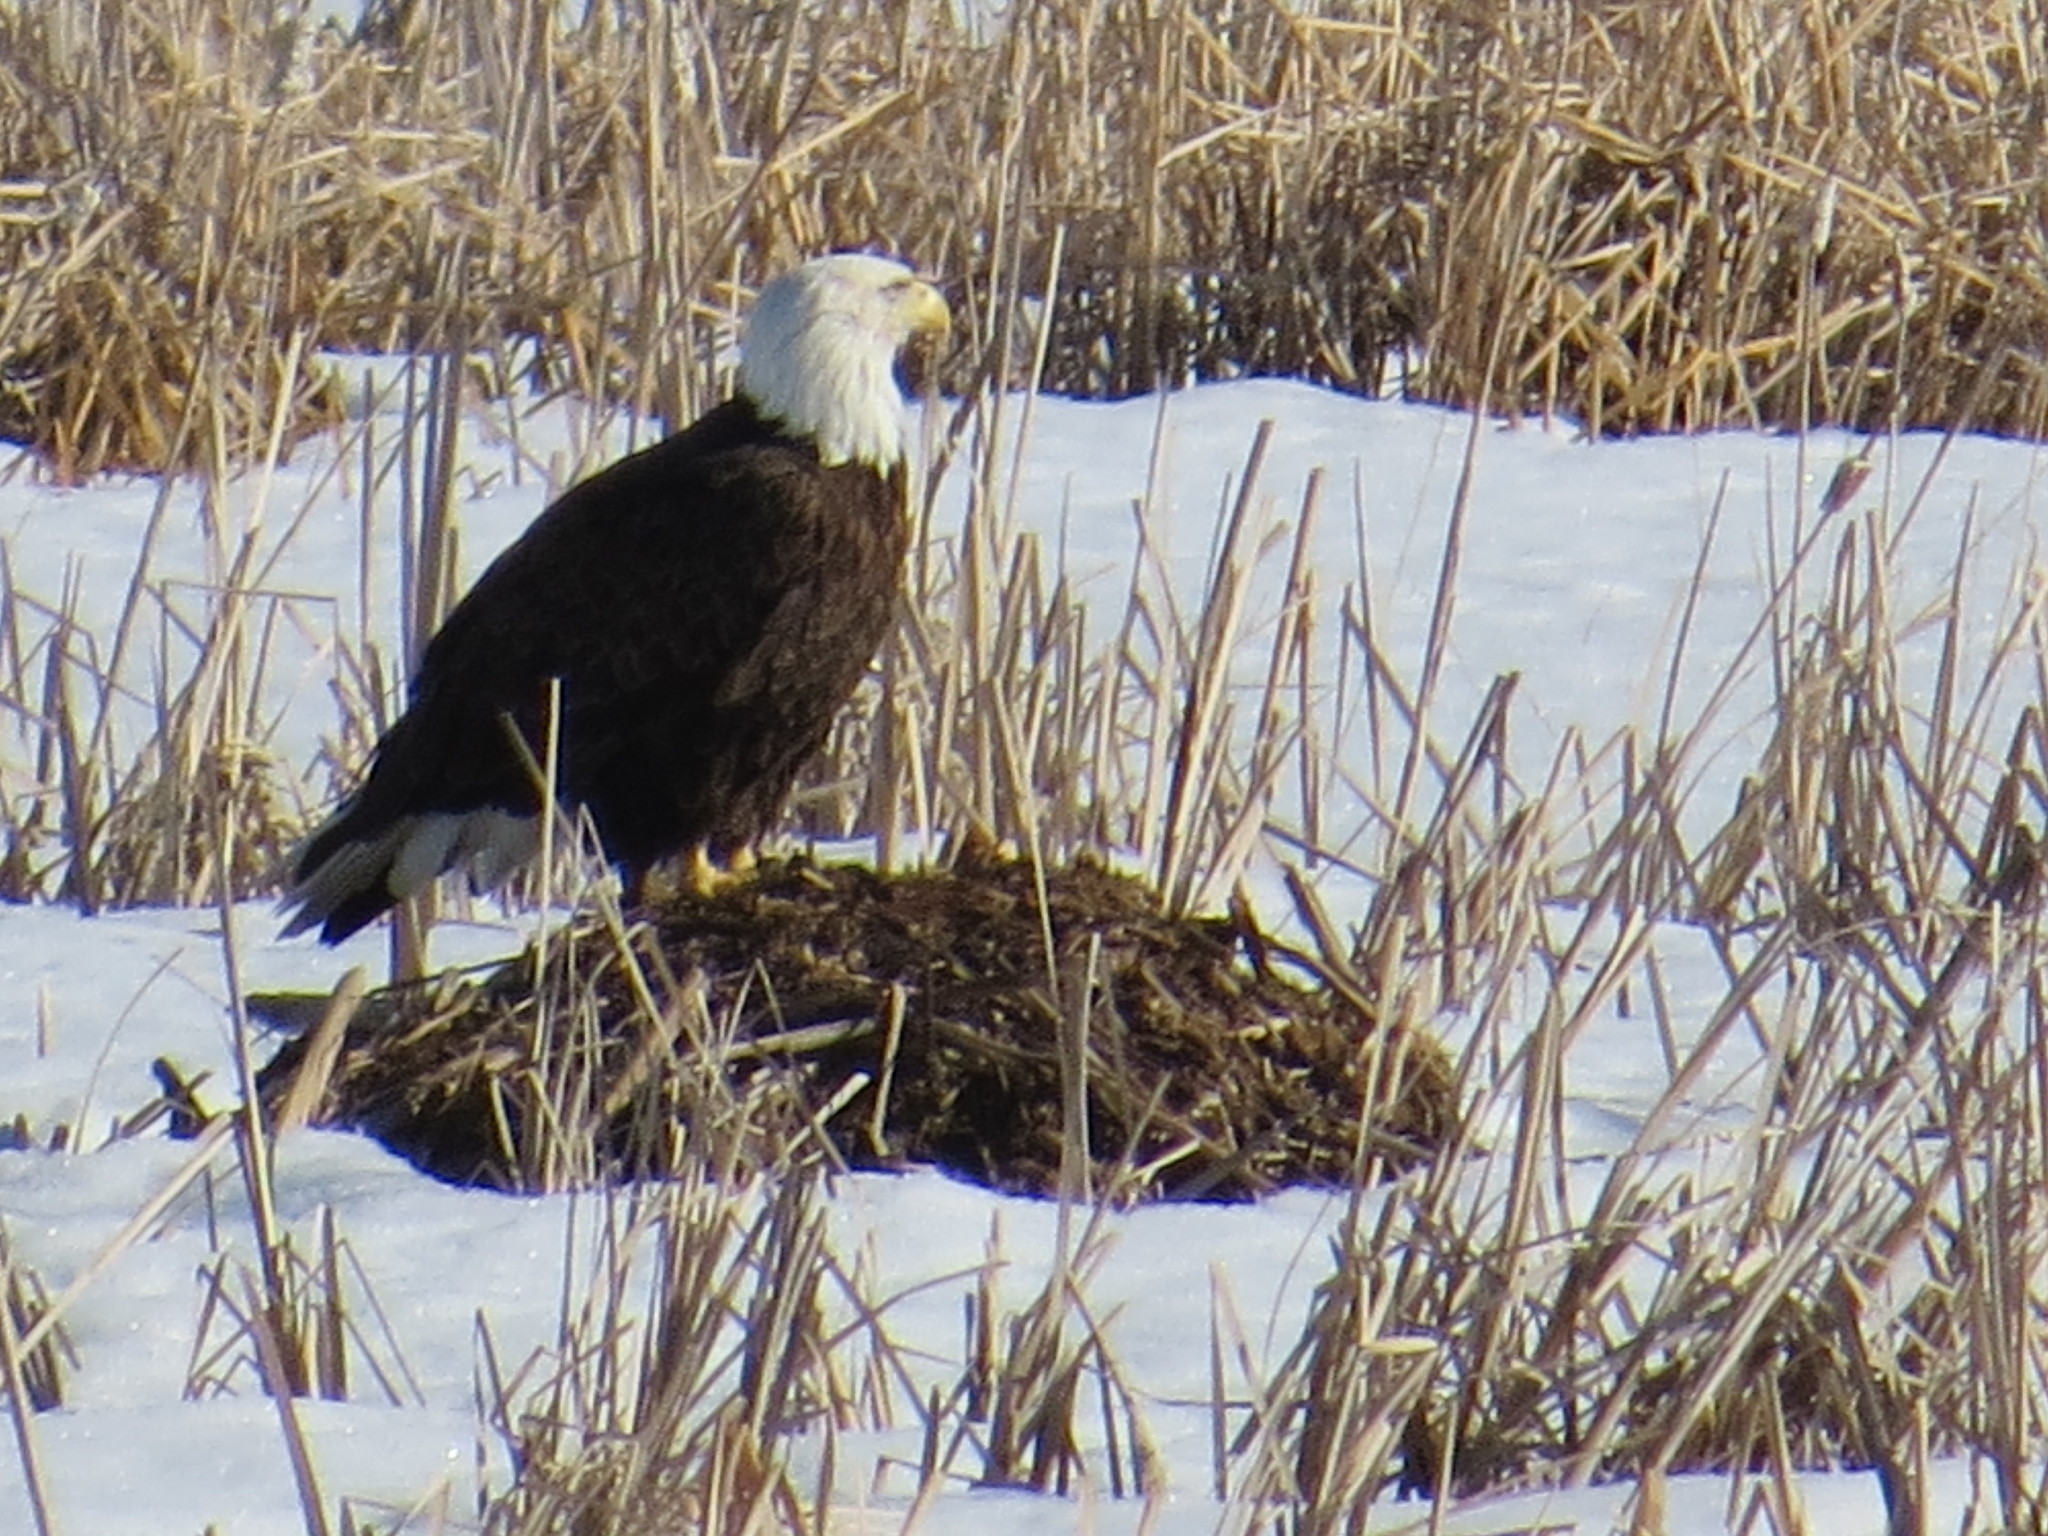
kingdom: Animalia
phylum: Chordata
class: Aves
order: Accipitriformes
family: Accipitridae
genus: Haliaeetus
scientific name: Haliaeetus leucocephalus
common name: Bald eagle
